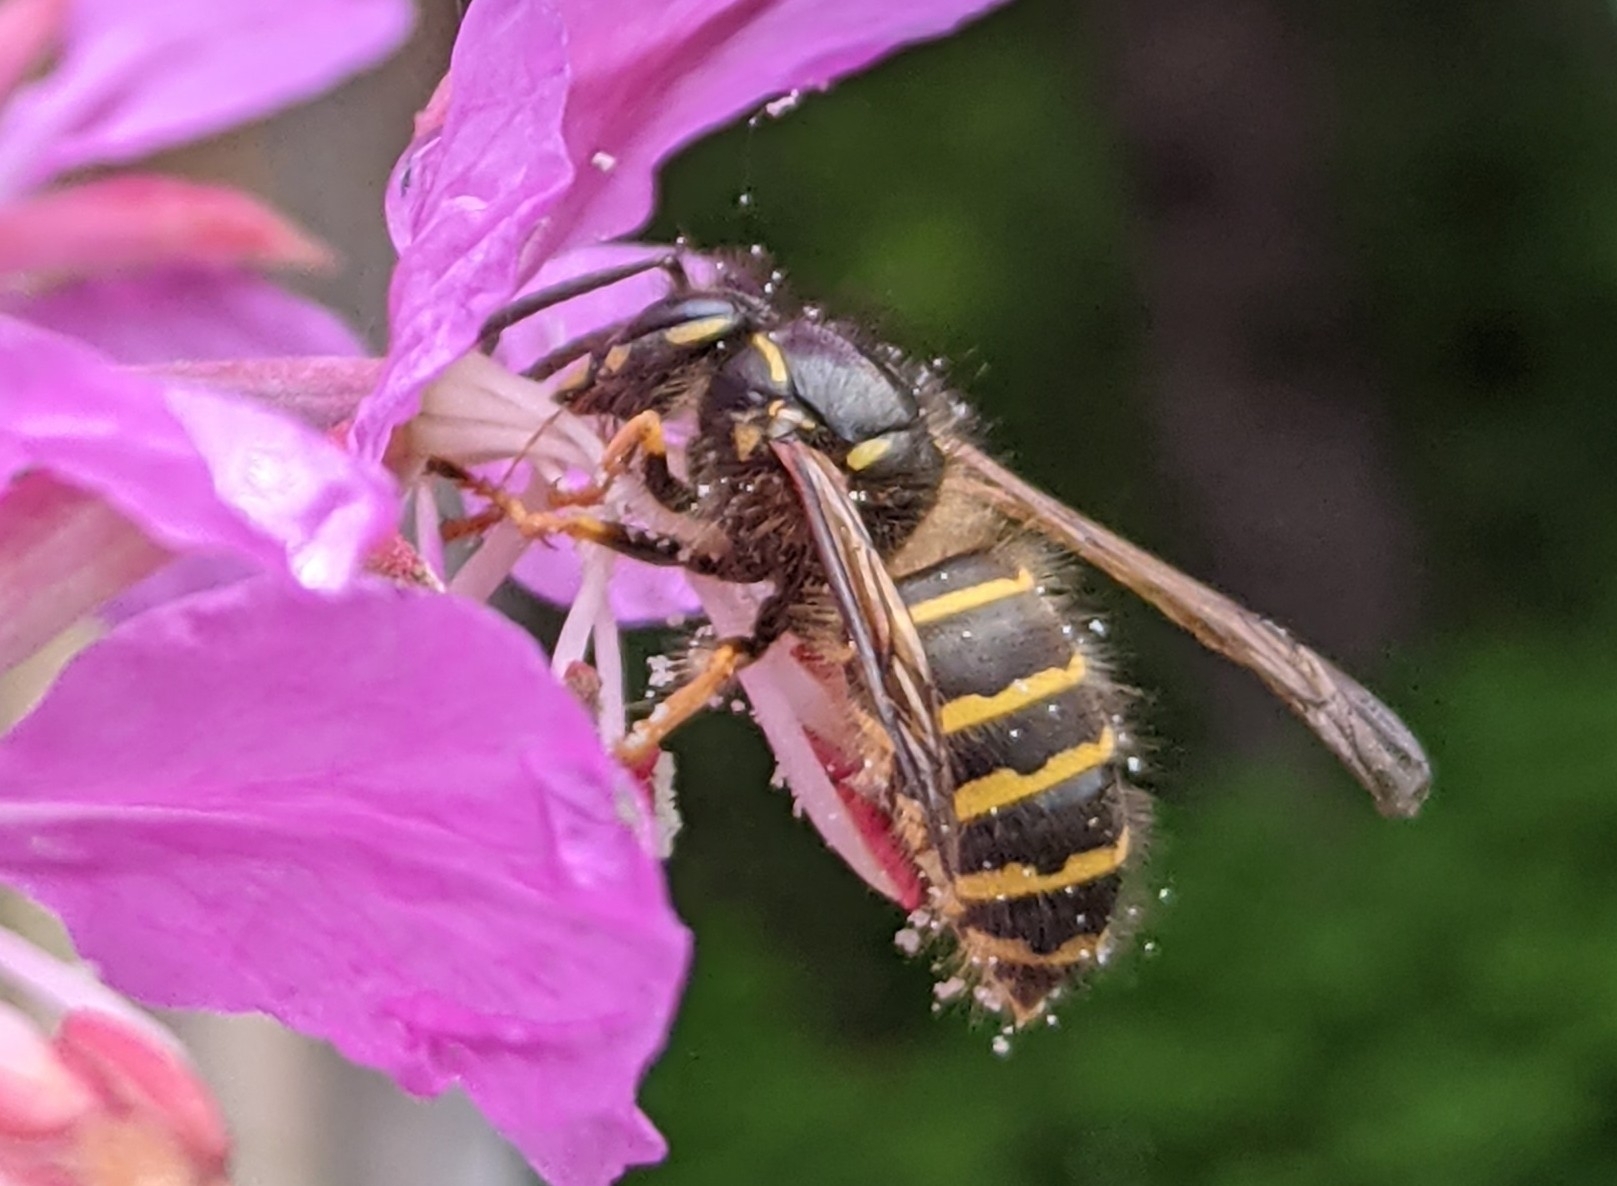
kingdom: Animalia
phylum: Arthropoda
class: Insecta
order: Hymenoptera
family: Vespidae
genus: Dolichovespula
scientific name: Dolichovespula
